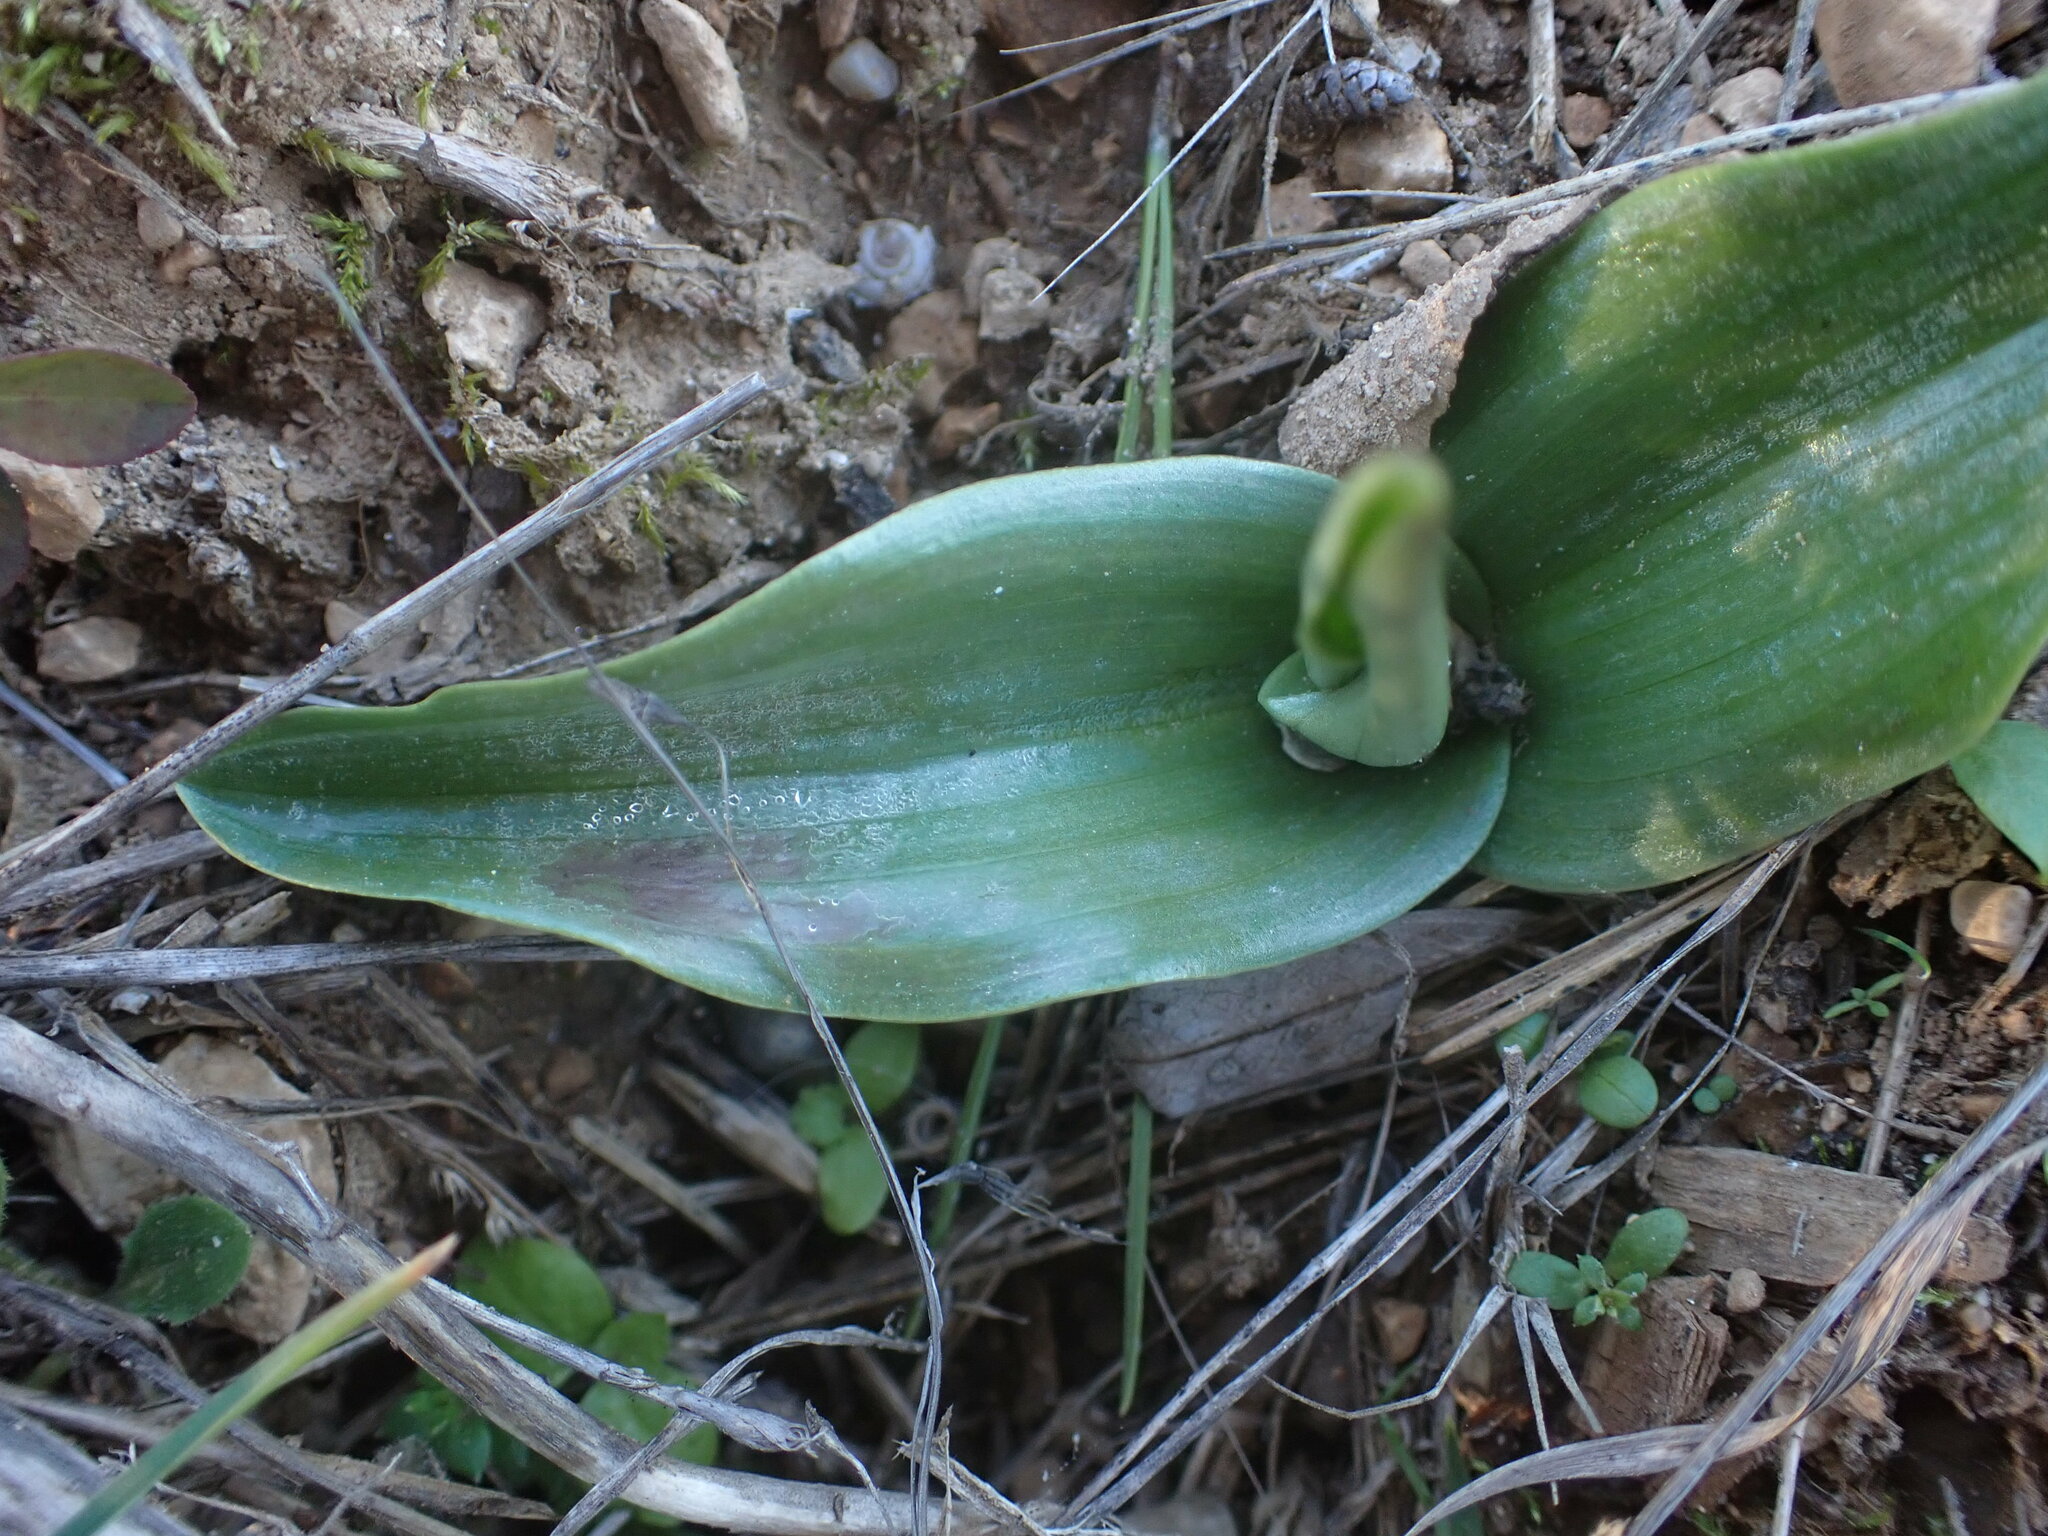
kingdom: Plantae
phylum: Tracheophyta
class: Liliopsida
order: Asparagales
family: Orchidaceae
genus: Himantoglossum
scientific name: Himantoglossum robertianum
